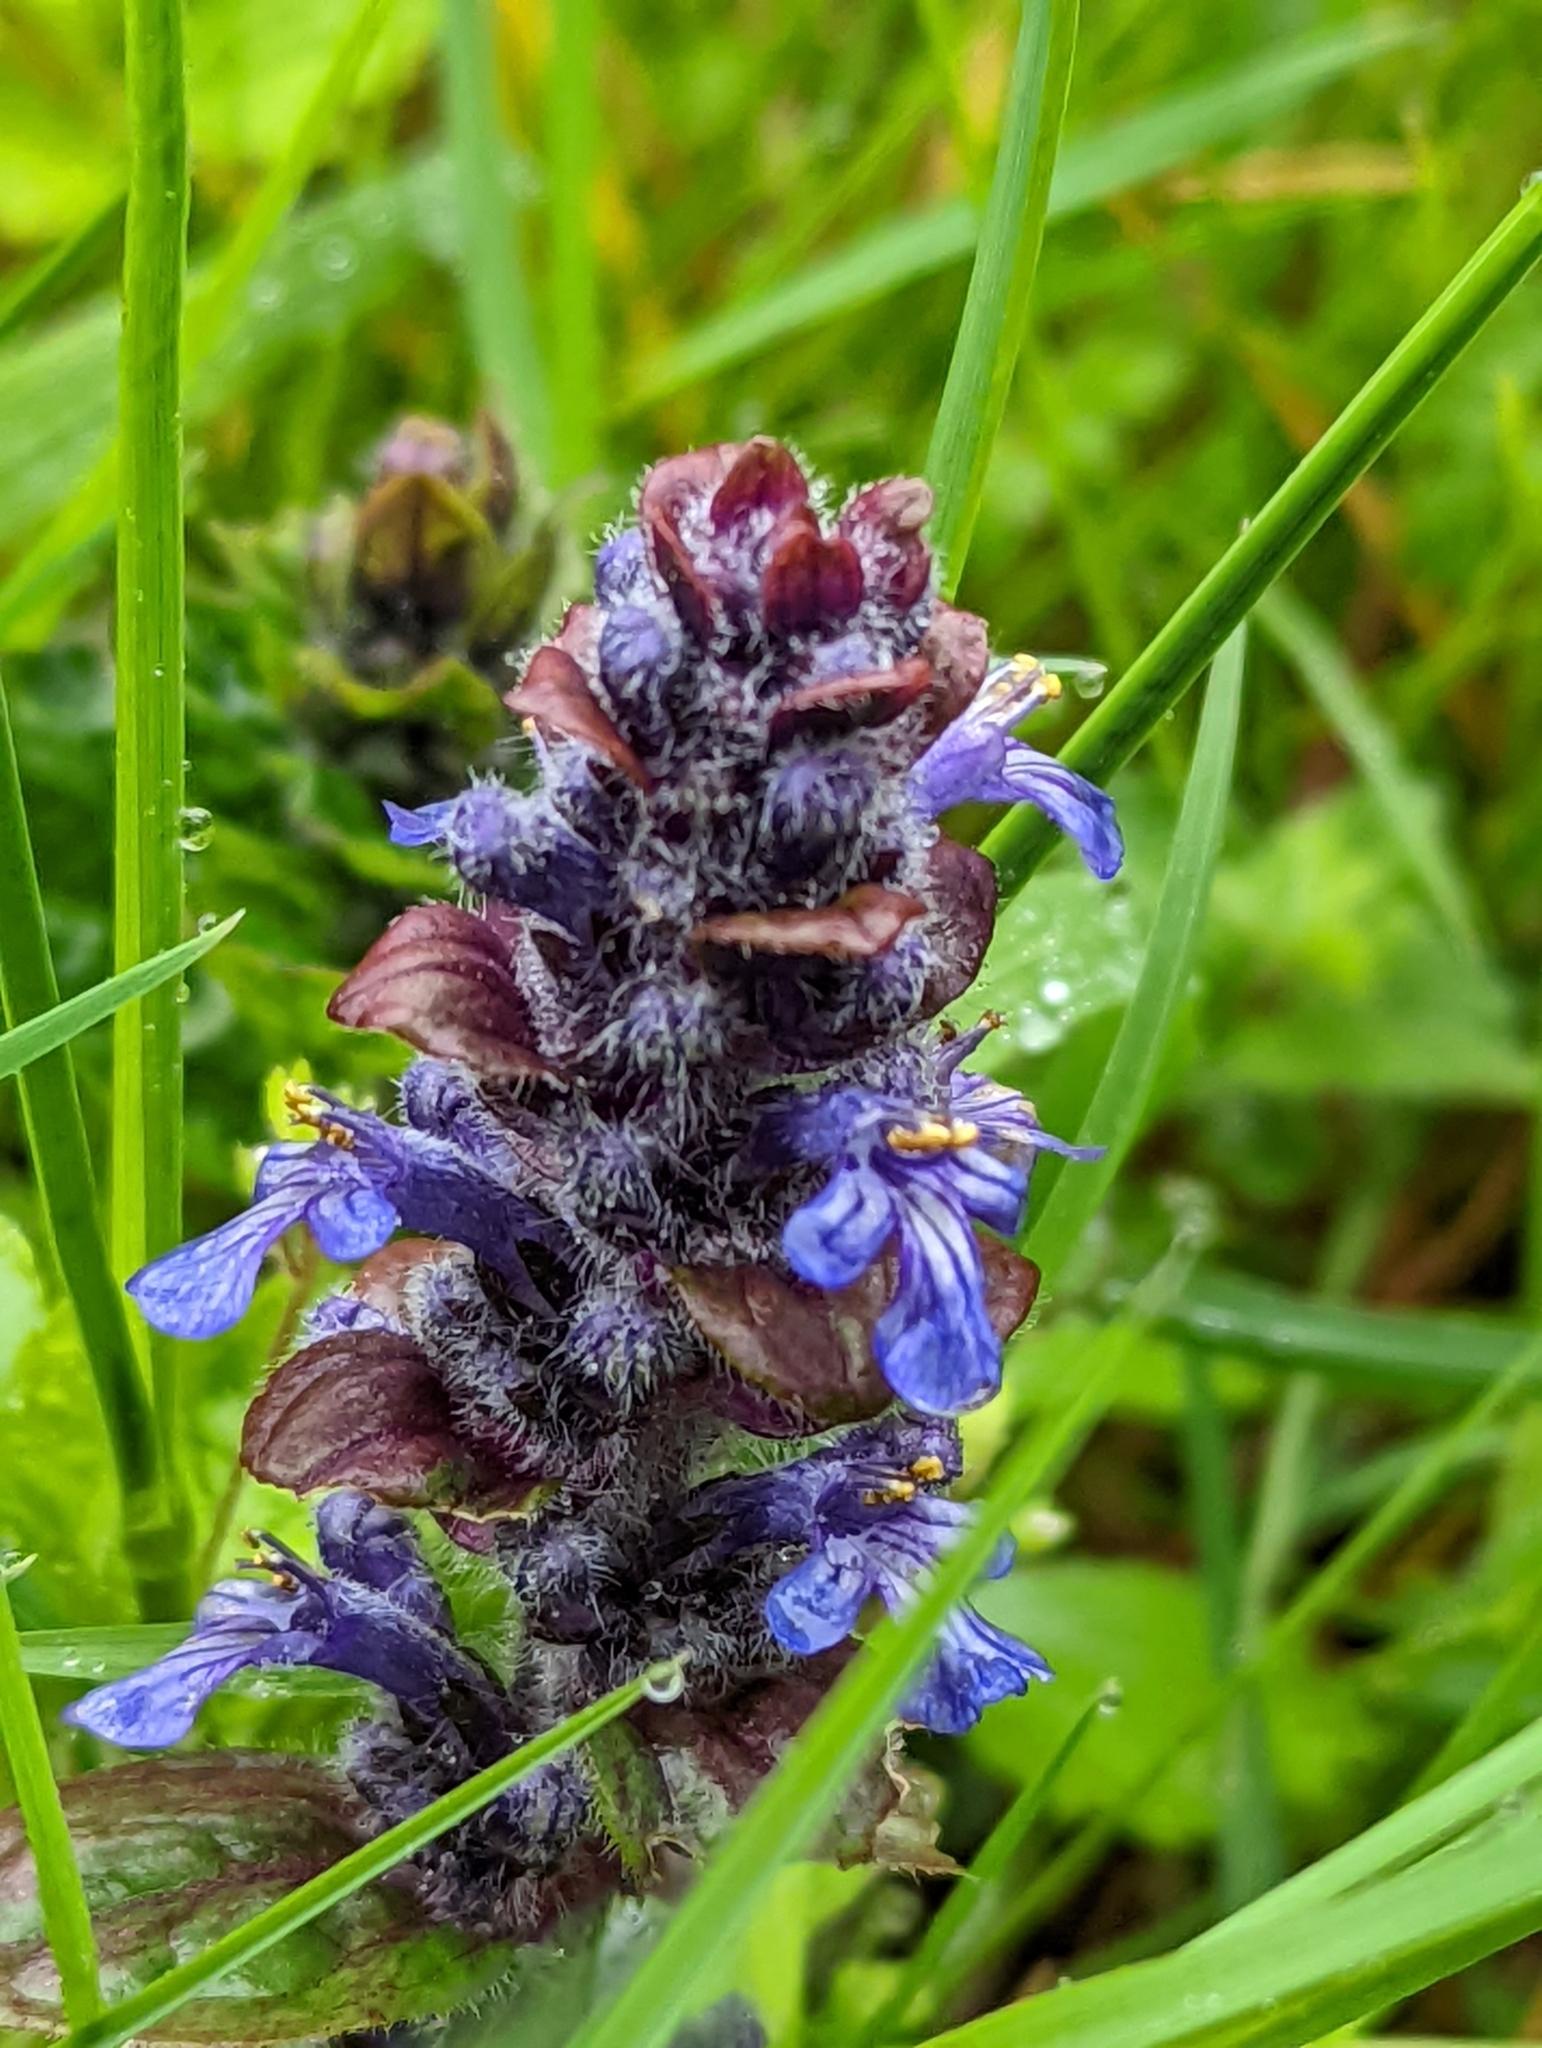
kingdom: Plantae
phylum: Tracheophyta
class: Magnoliopsida
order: Lamiales
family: Lamiaceae
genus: Ajuga
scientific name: Ajuga reptans
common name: Bugle
